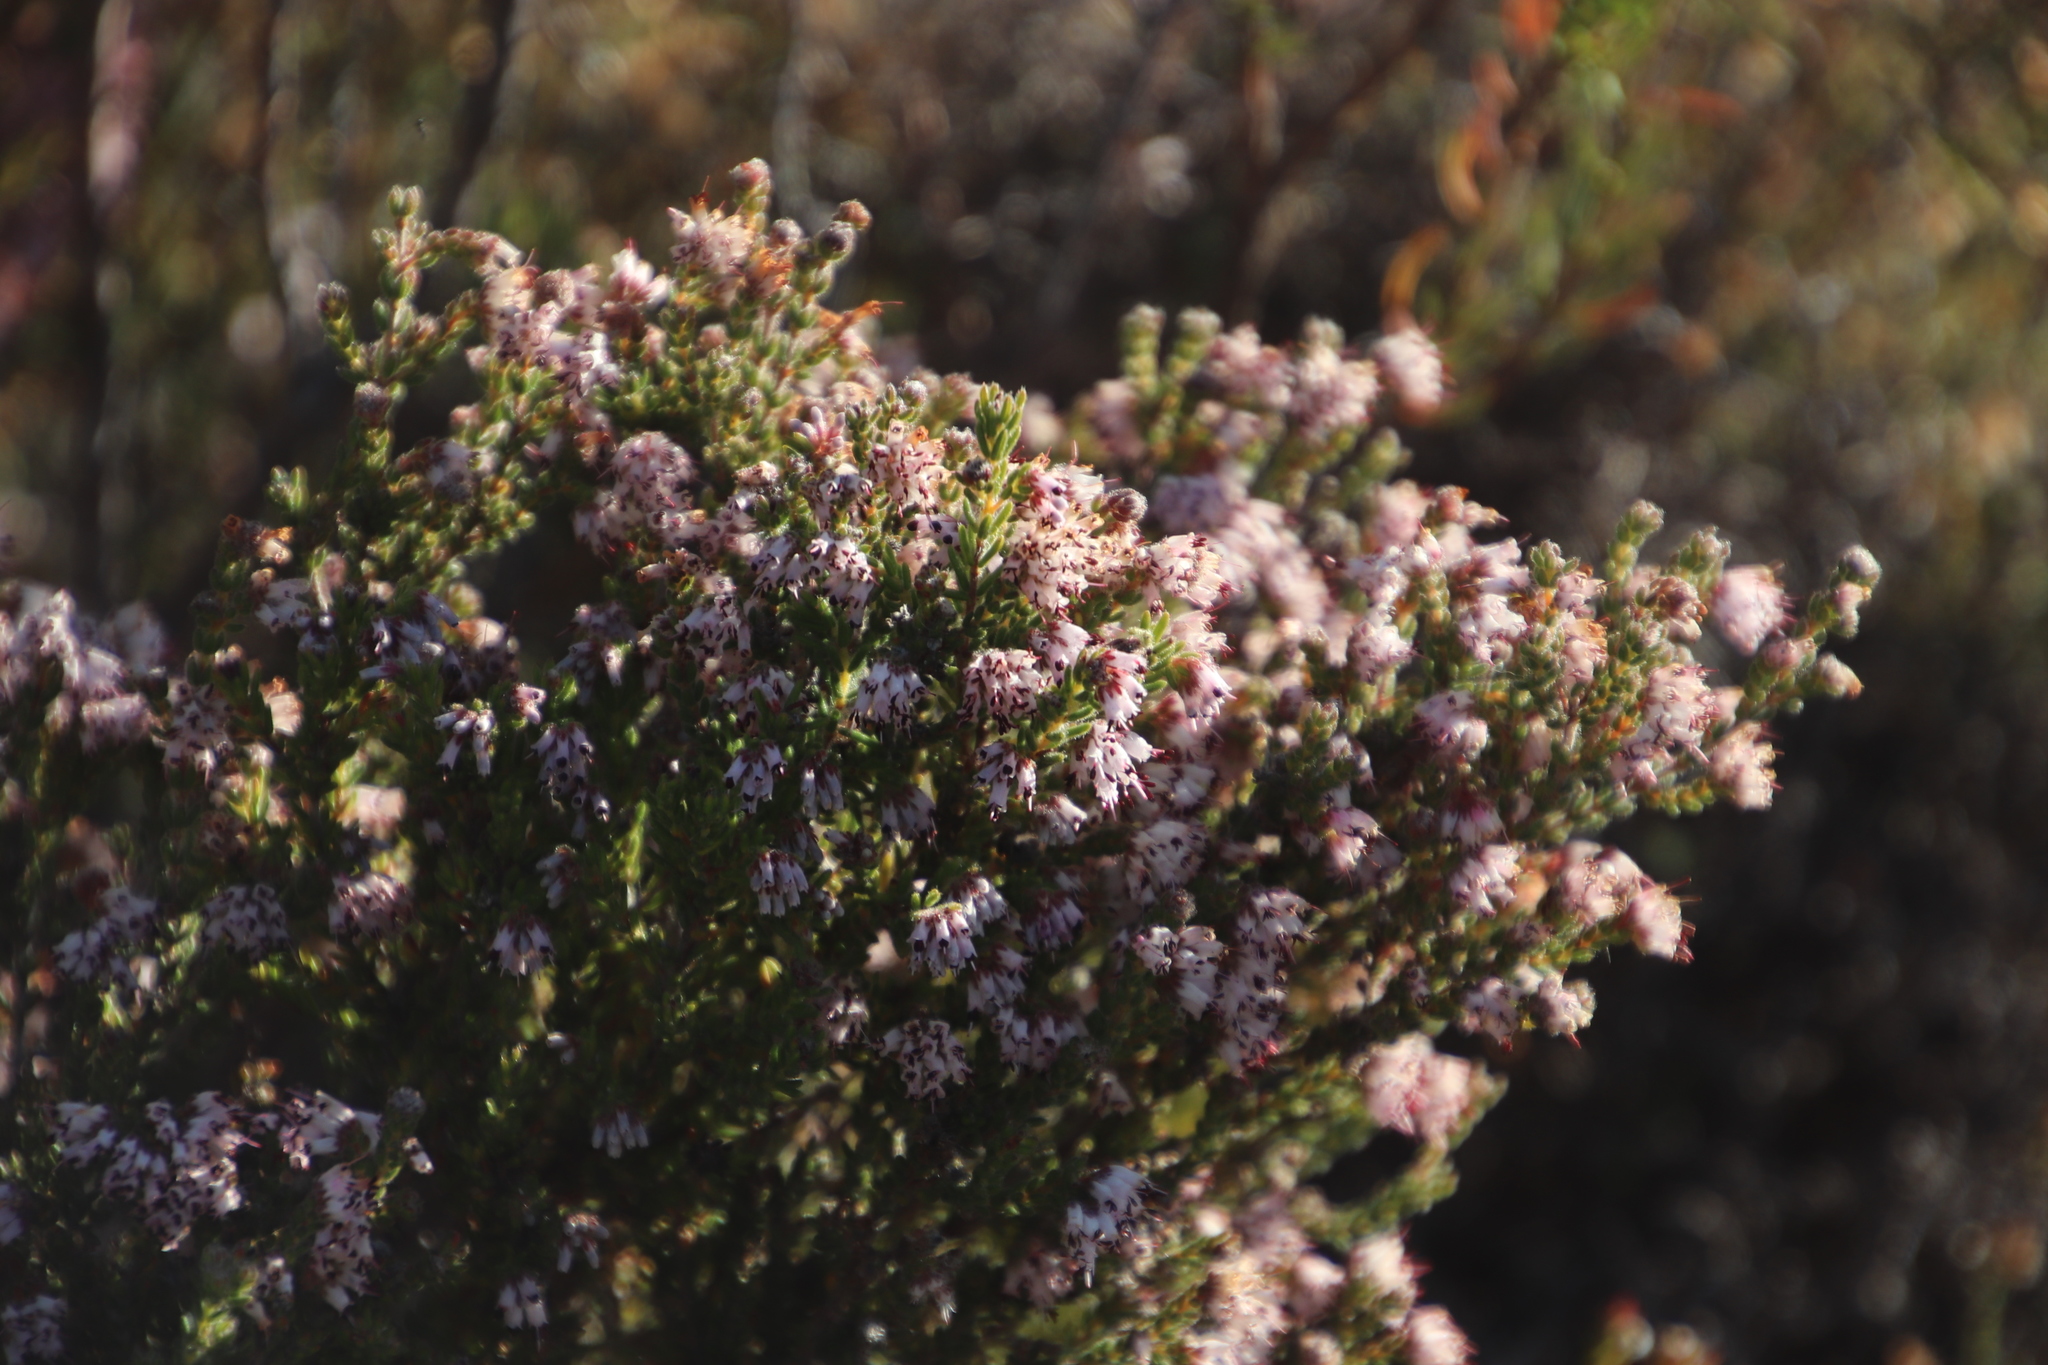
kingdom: Plantae
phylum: Tracheophyta
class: Magnoliopsida
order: Ericales
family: Ericaceae
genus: Erica
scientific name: Erica ericoides
